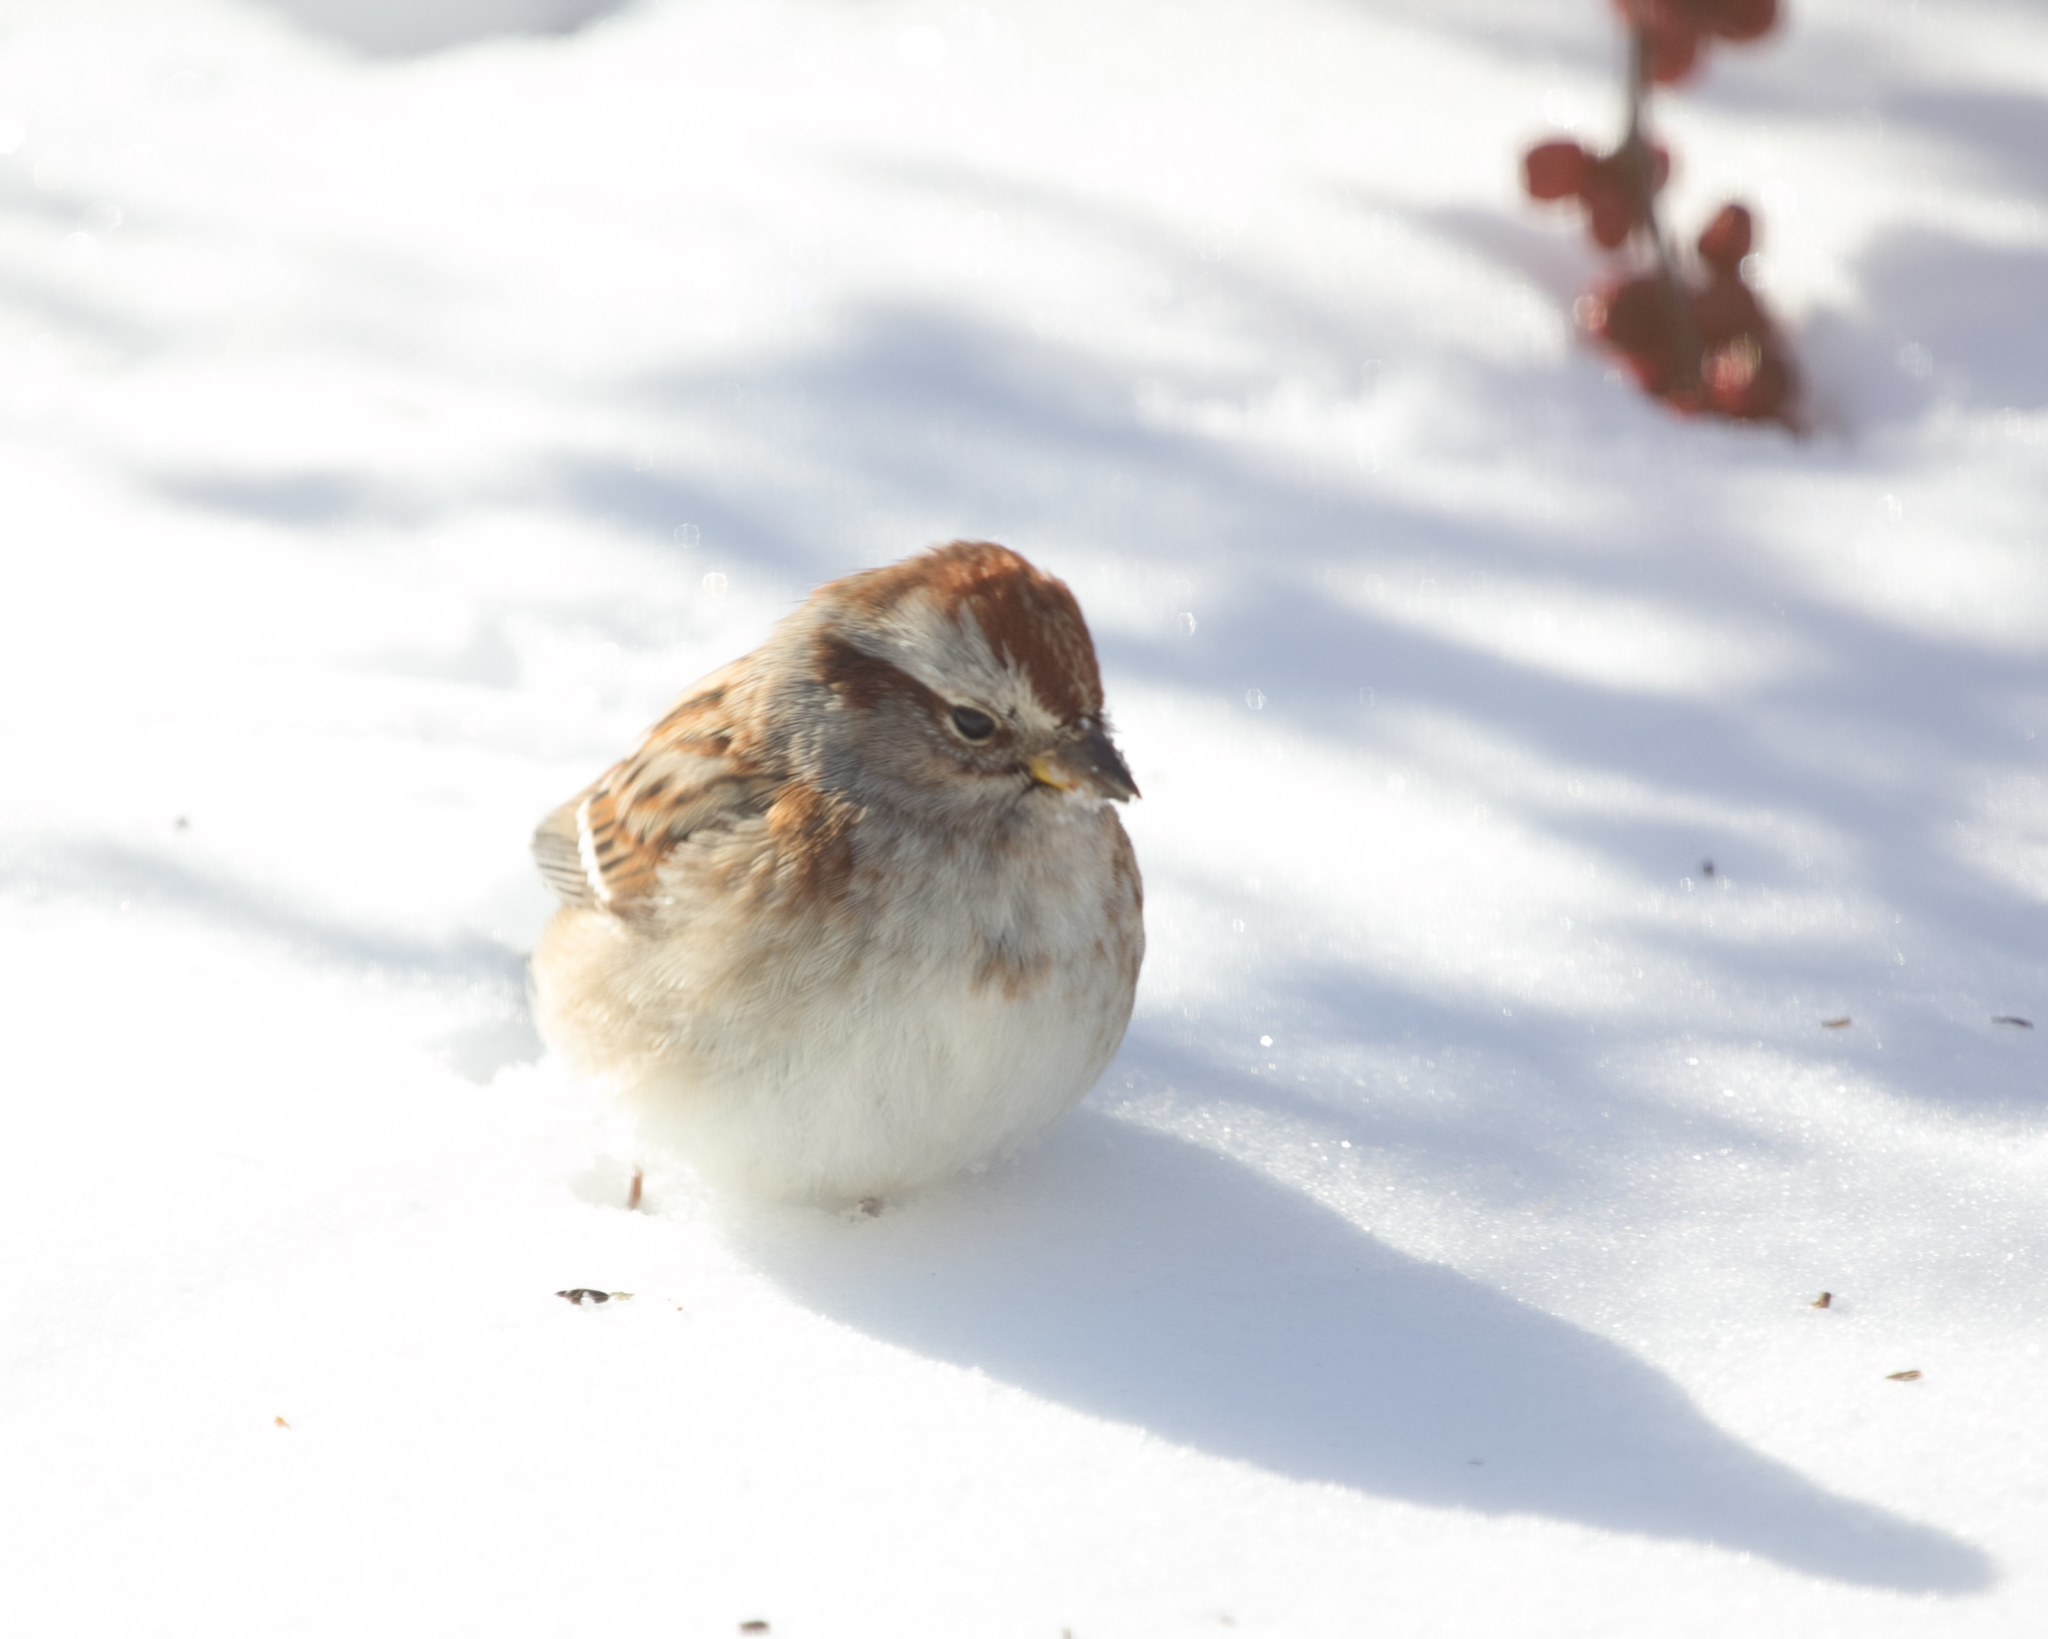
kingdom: Animalia
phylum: Chordata
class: Aves
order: Passeriformes
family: Passerellidae
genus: Spizelloides
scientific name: Spizelloides arborea
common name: American tree sparrow
